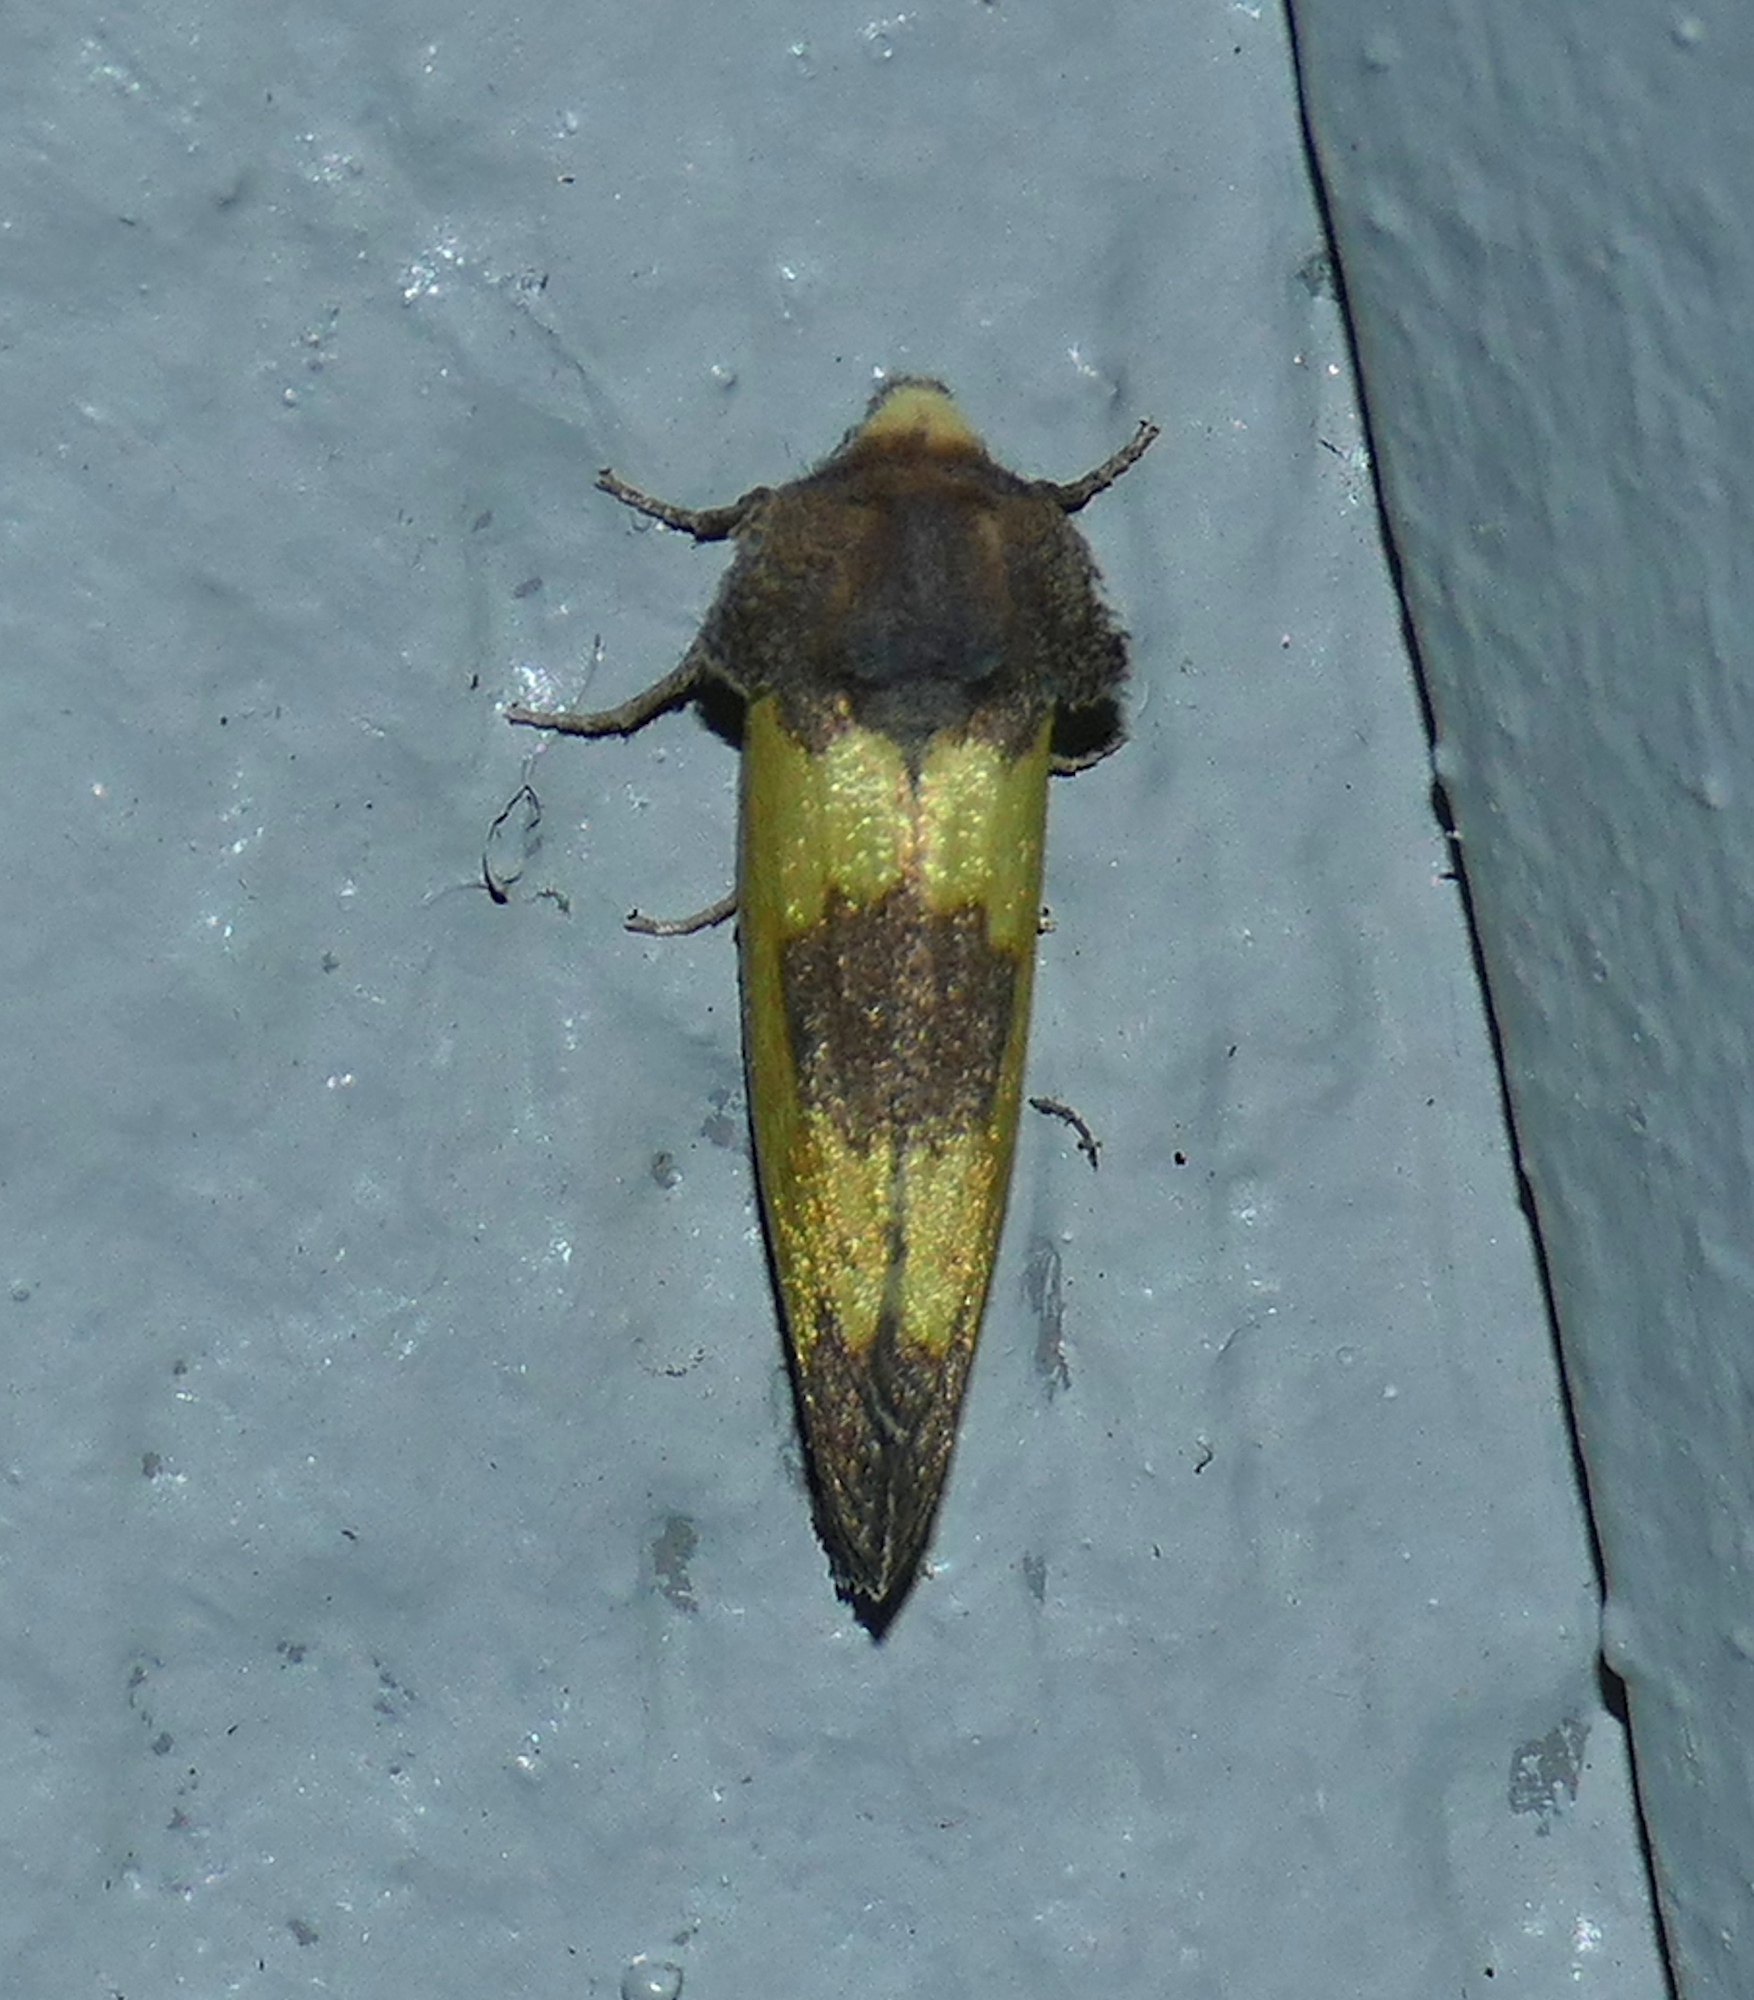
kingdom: Animalia
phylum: Arthropoda
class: Insecta
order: Lepidoptera
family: Noctuidae
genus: Stiria
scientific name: Stiria intermixta
